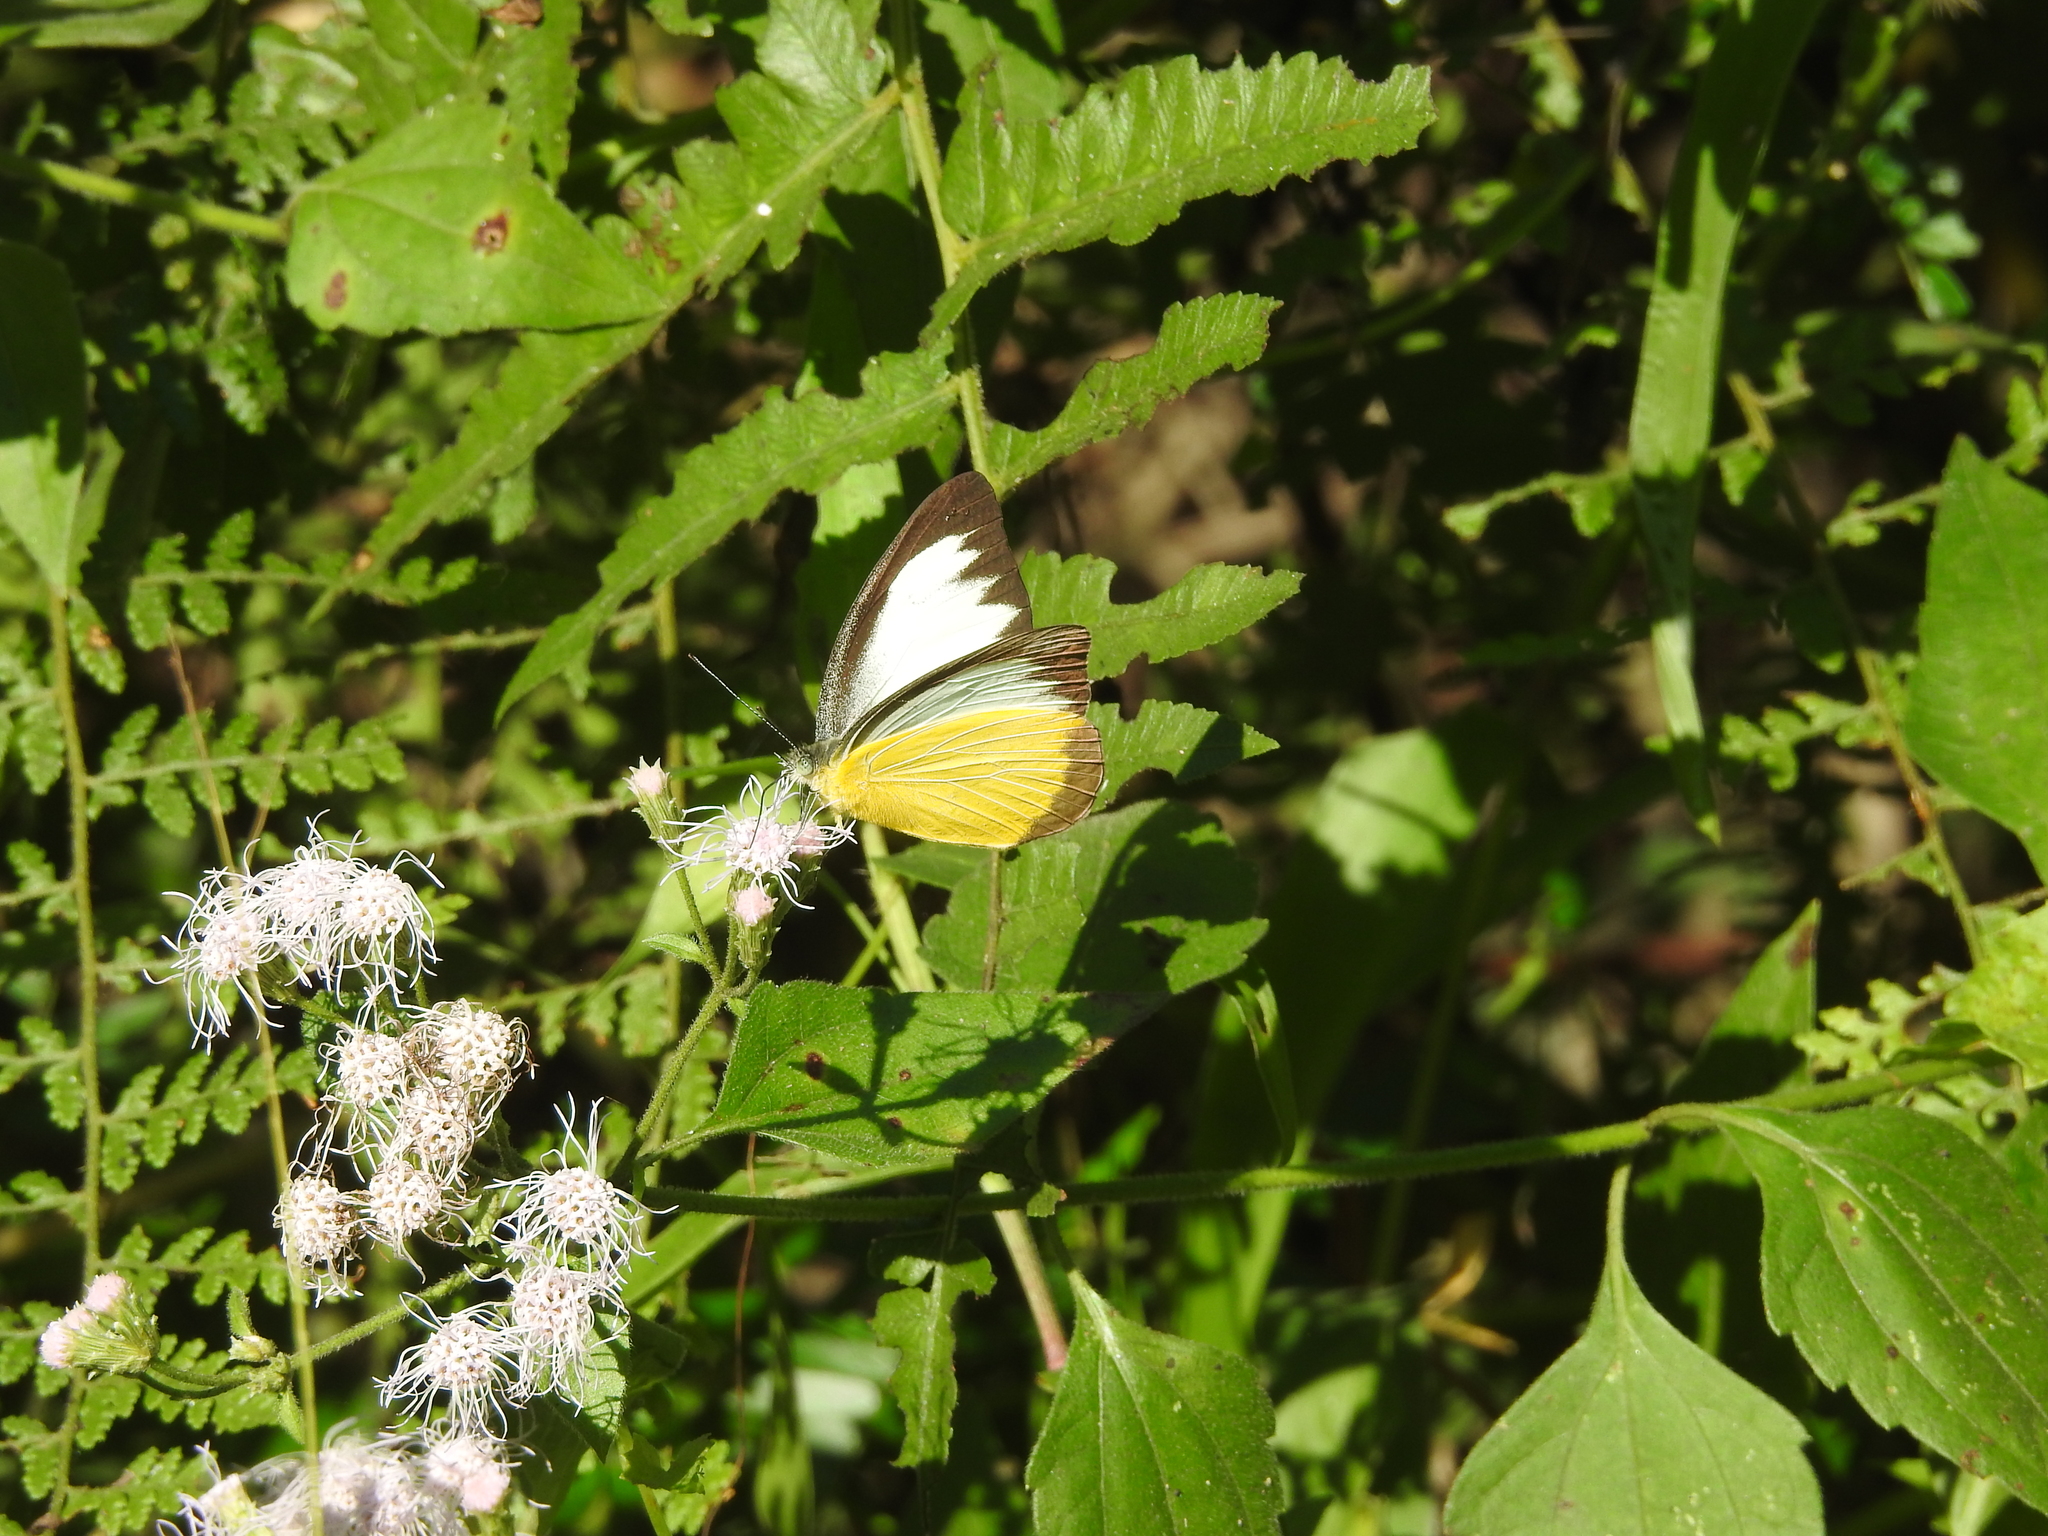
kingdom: Animalia
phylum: Arthropoda
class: Insecta
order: Lepidoptera
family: Pieridae
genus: Appias
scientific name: Appias lyncida
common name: Chocolate albatross
